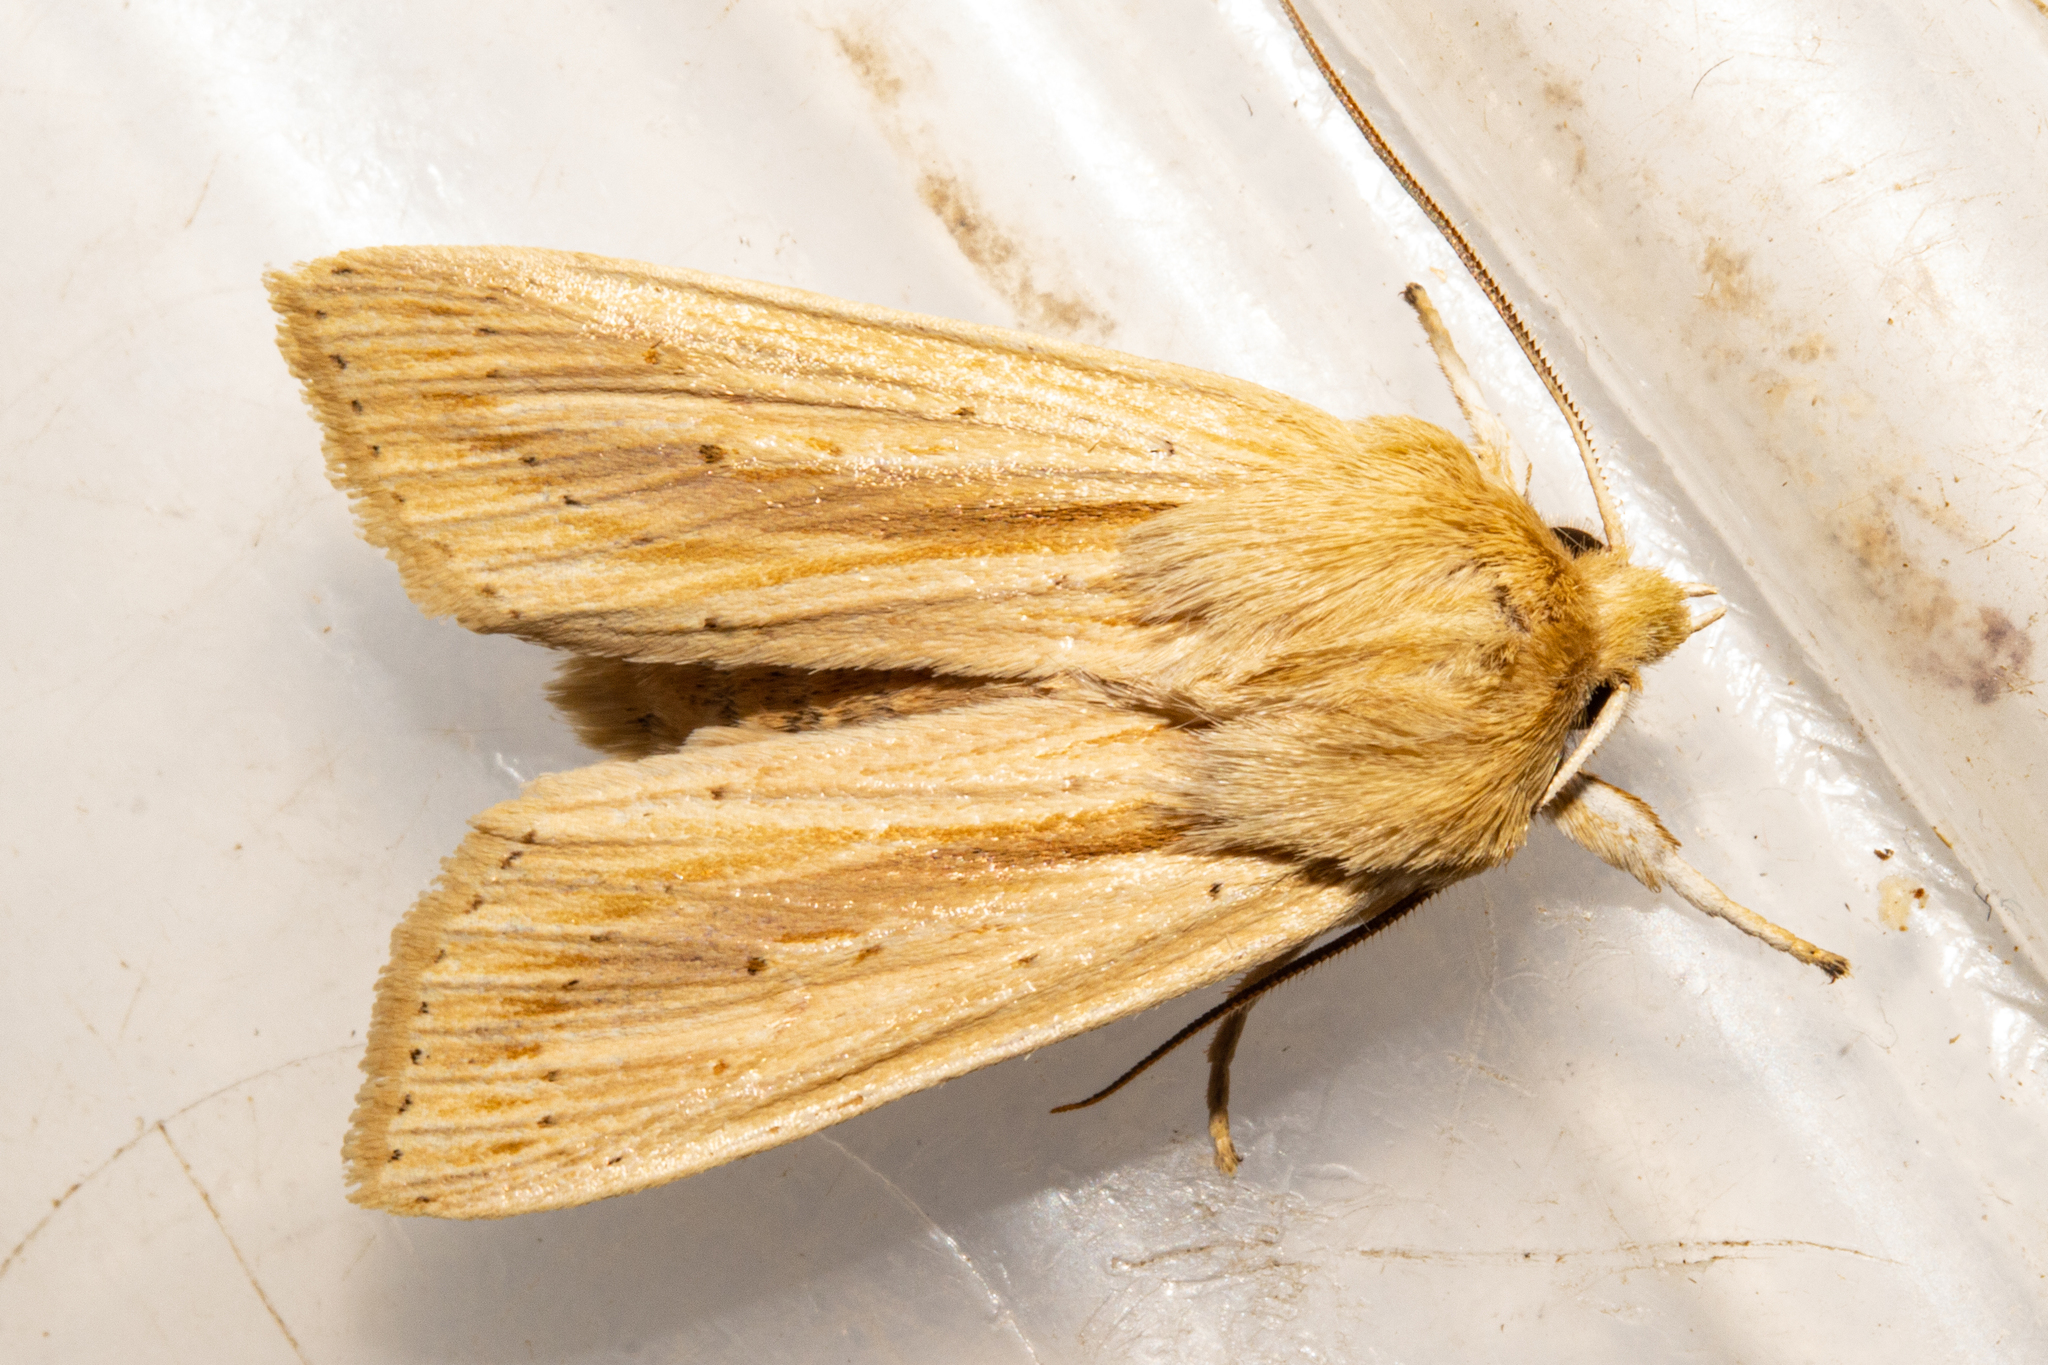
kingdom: Animalia
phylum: Arthropoda
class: Insecta
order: Lepidoptera
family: Noctuidae
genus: Ichneutica
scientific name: Ichneutica semivittata
